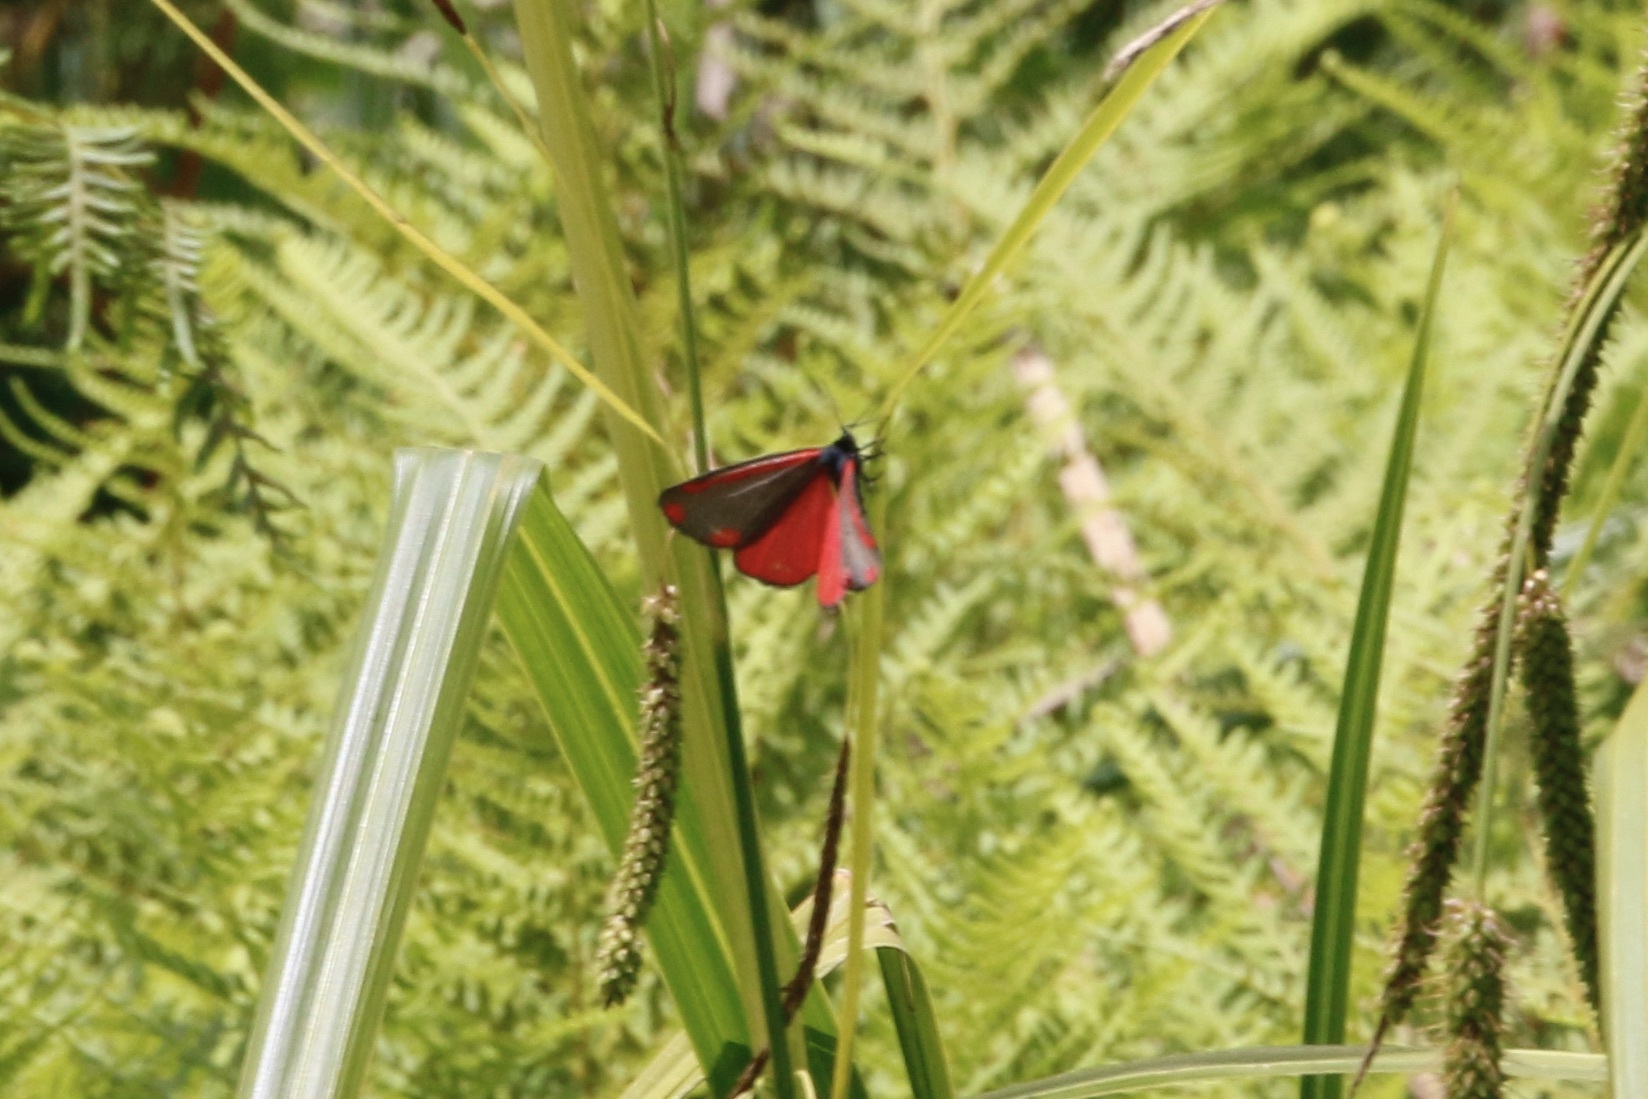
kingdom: Animalia
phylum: Arthropoda
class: Insecta
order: Lepidoptera
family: Erebidae
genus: Tyria
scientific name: Tyria jacobaeae
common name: Cinnabar
